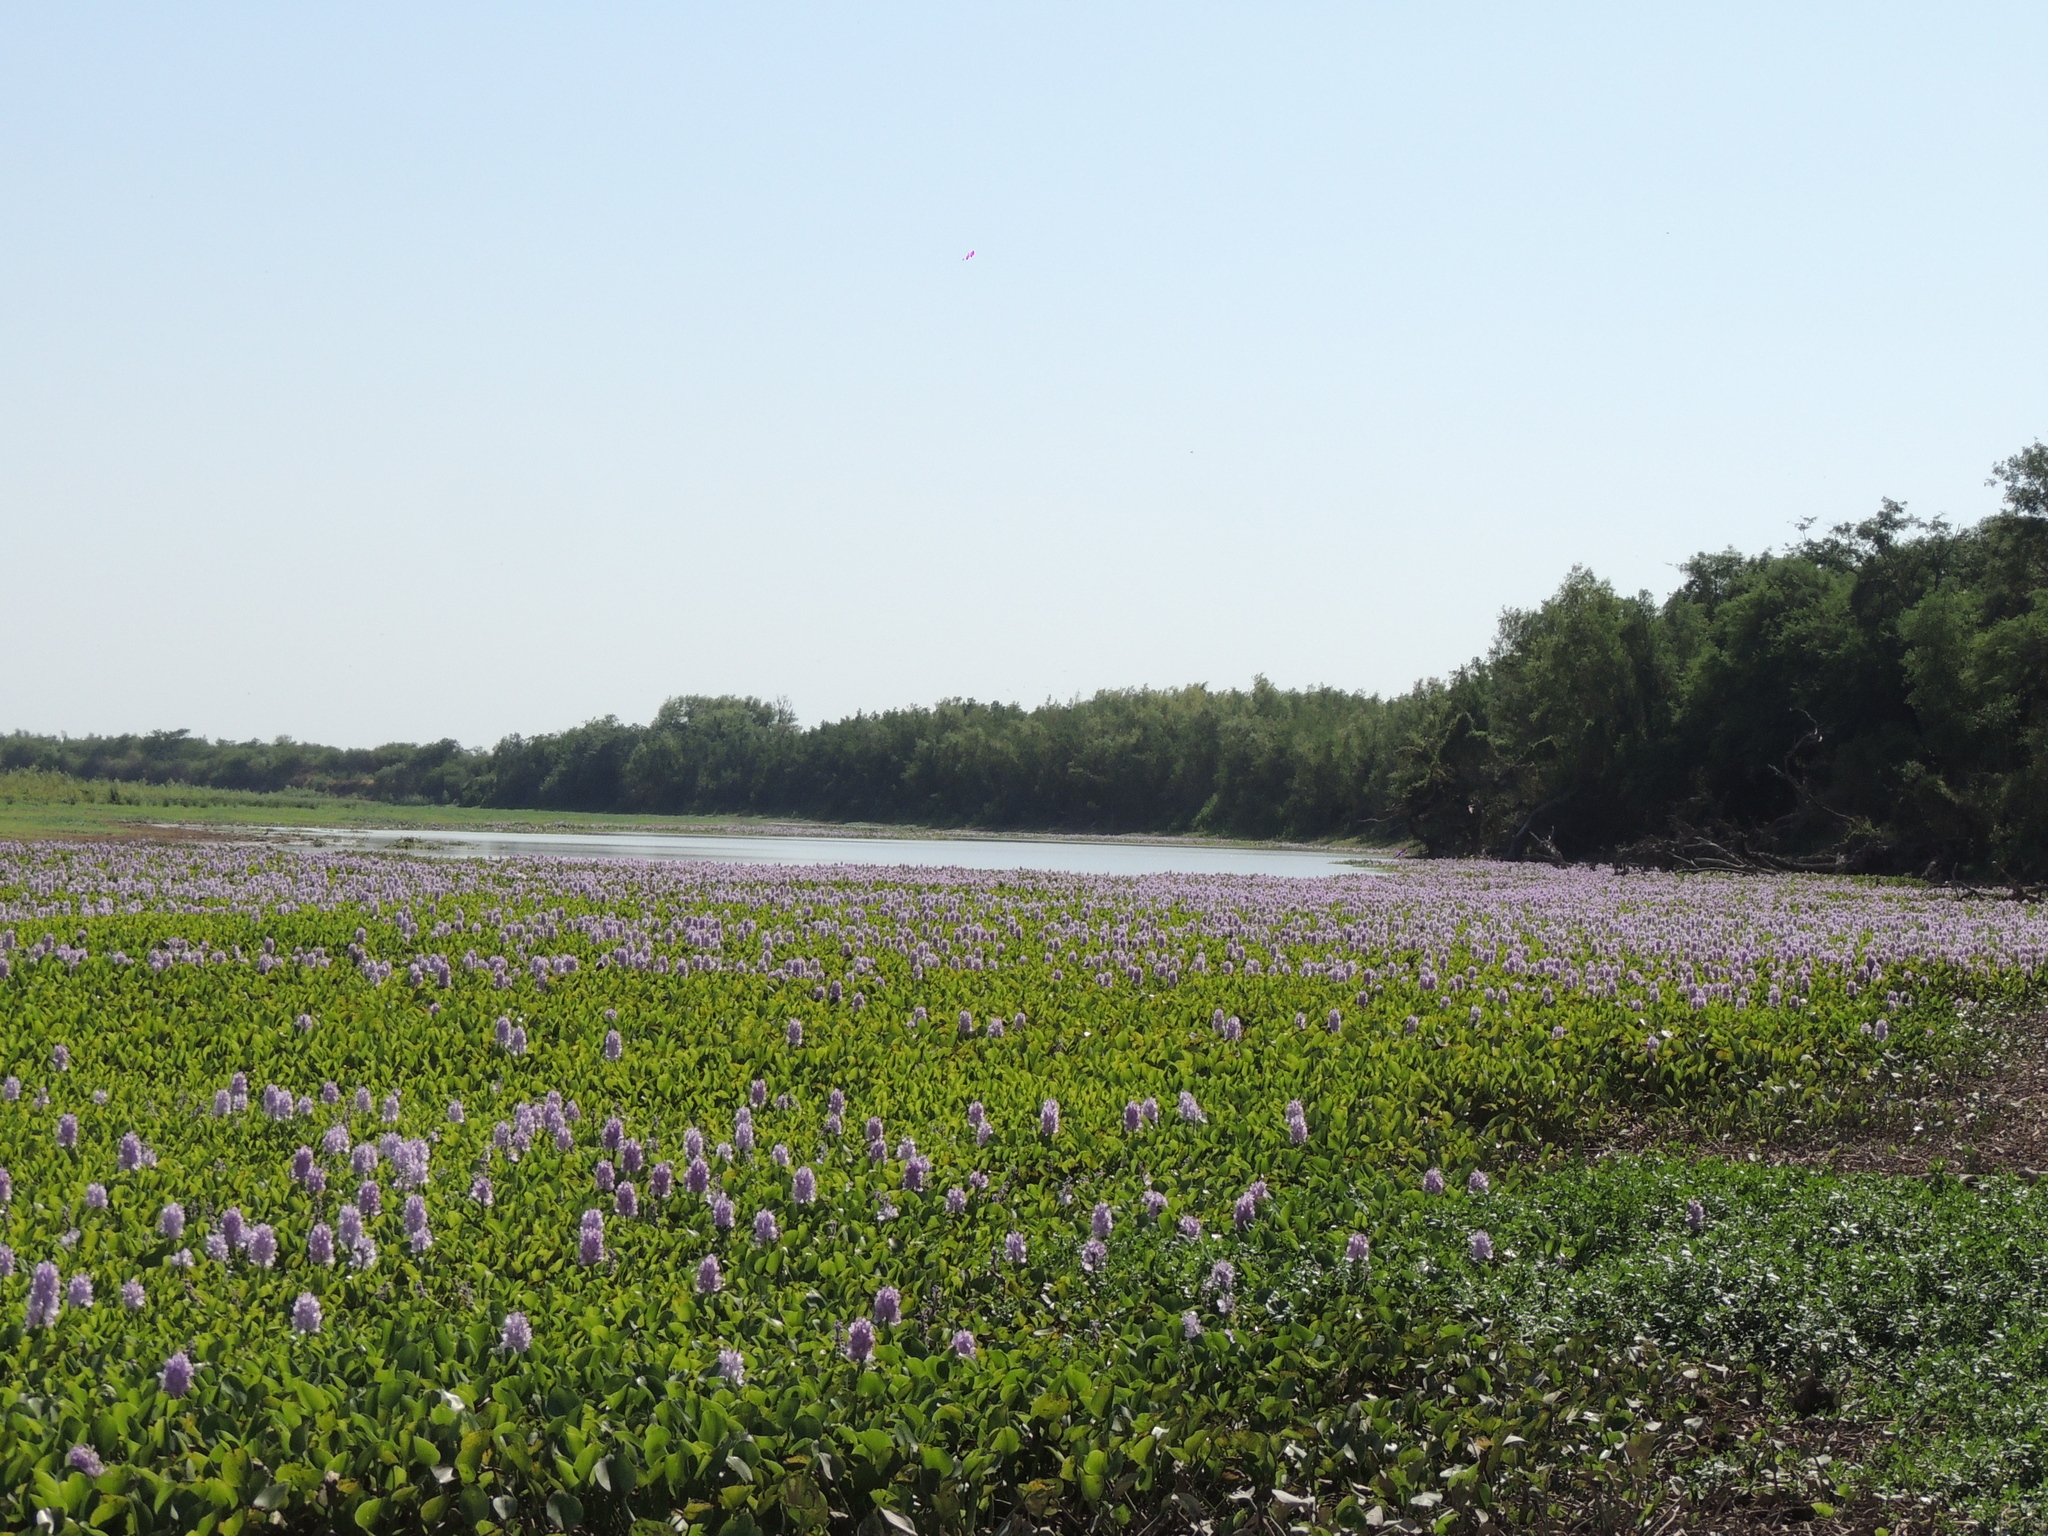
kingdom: Plantae
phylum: Tracheophyta
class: Liliopsida
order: Commelinales
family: Pontederiaceae
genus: Pontederia
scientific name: Pontederia crassipes
